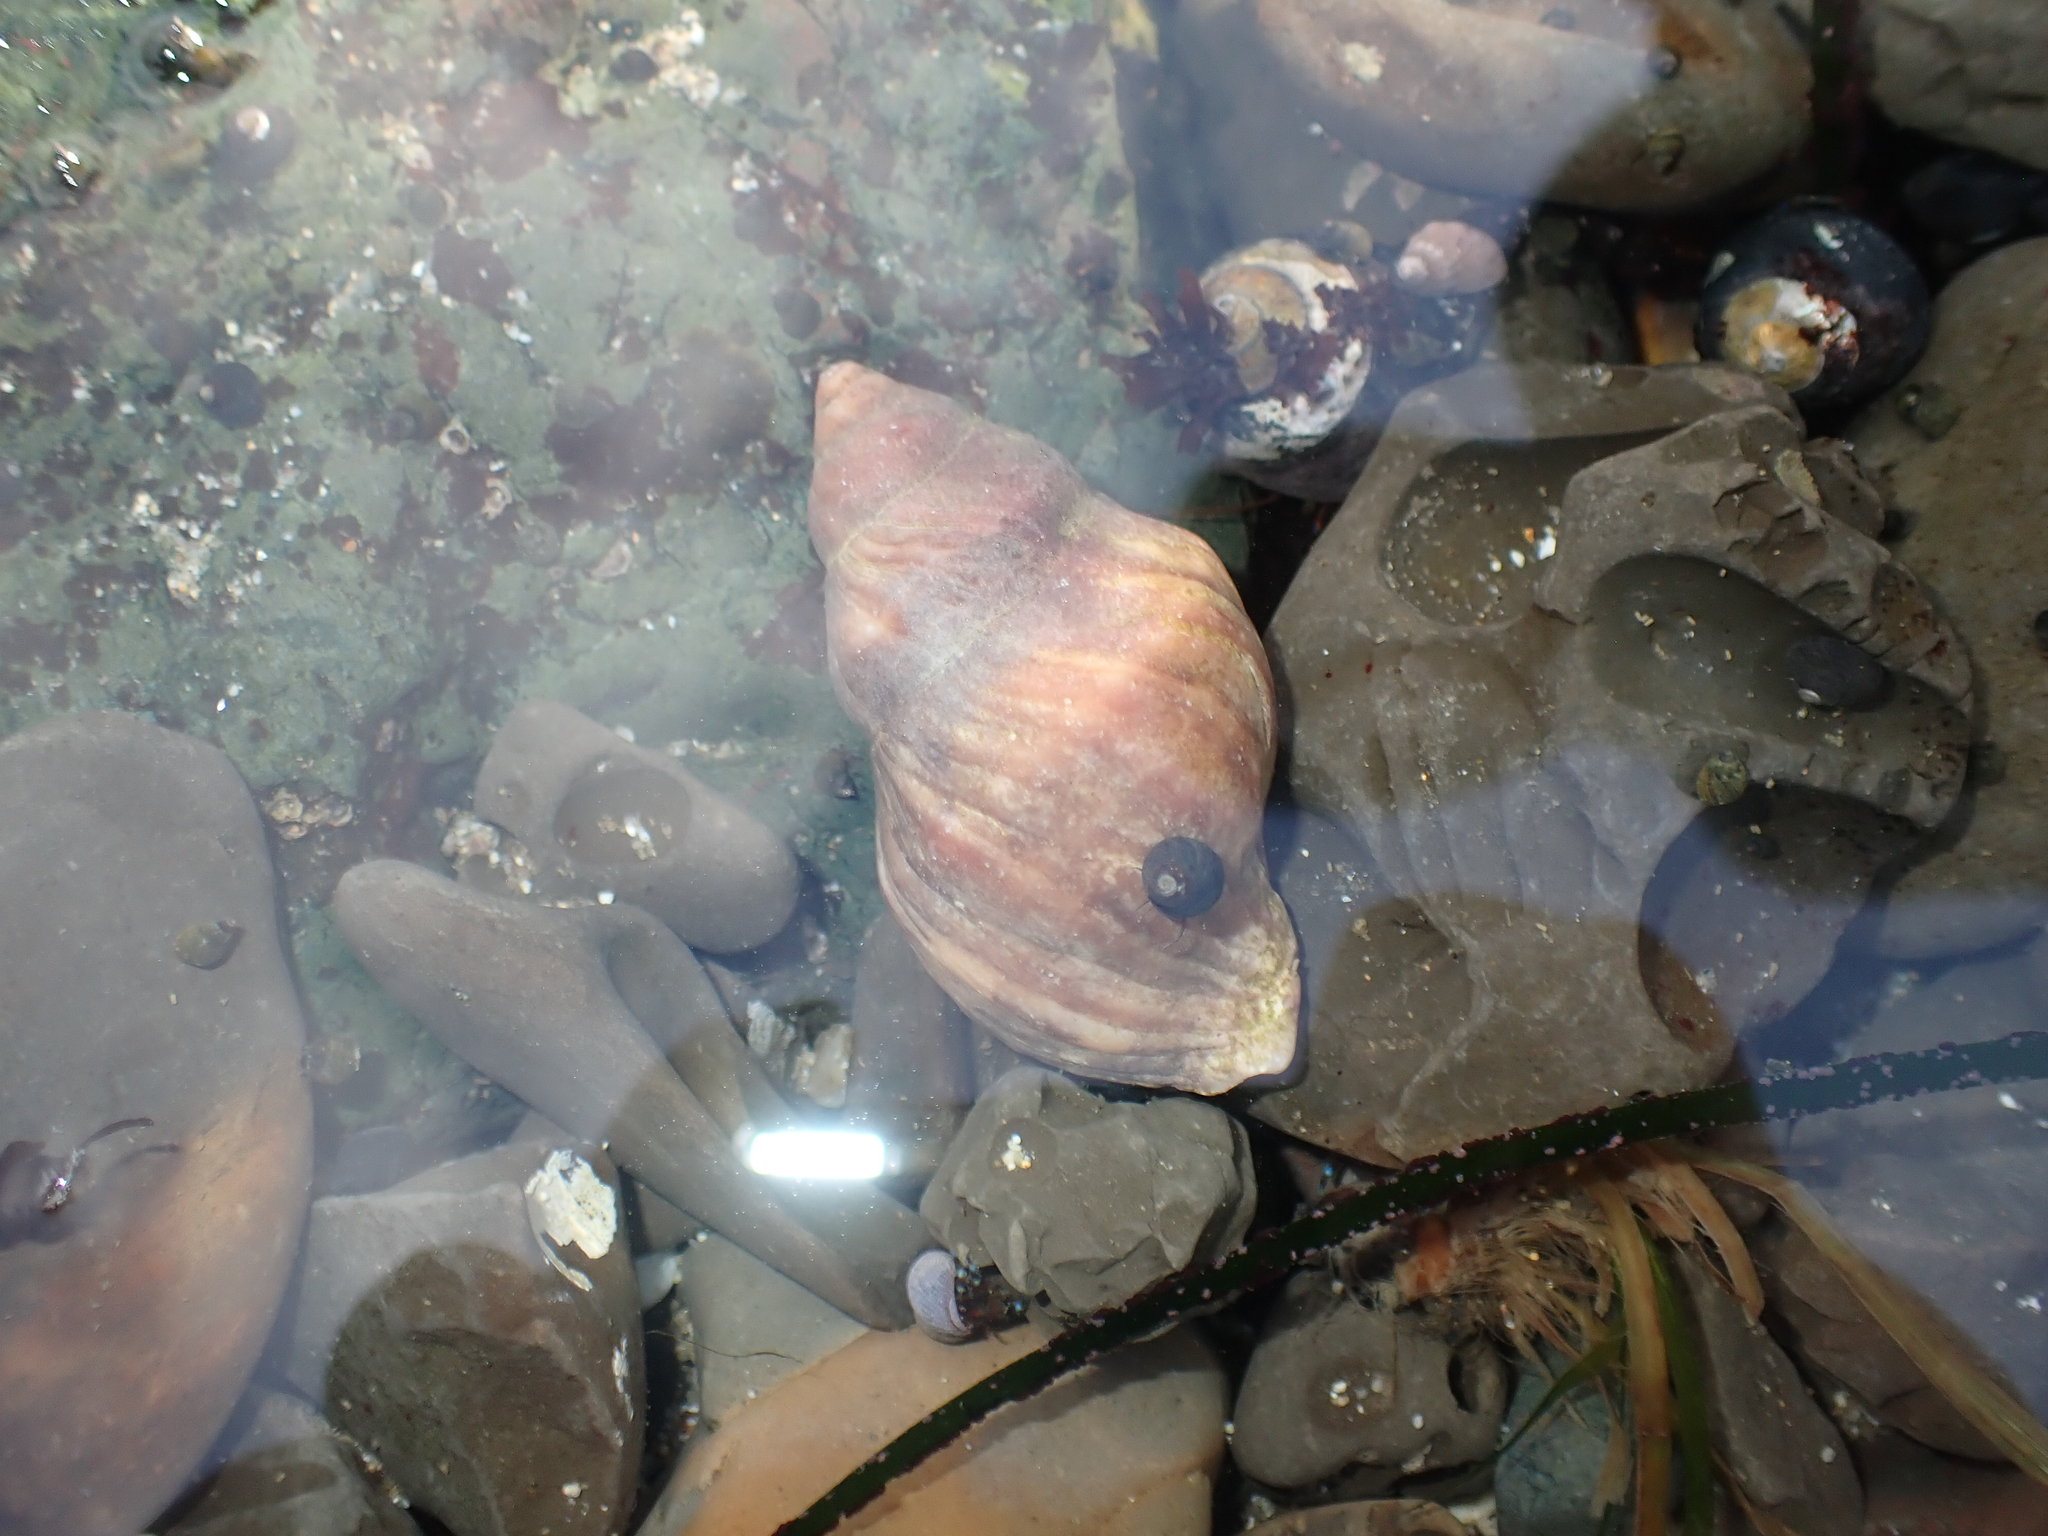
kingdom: Animalia
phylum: Mollusca
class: Gastropoda
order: Neogastropoda
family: Muricidae
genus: Nucella
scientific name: Nucella lamellosa
